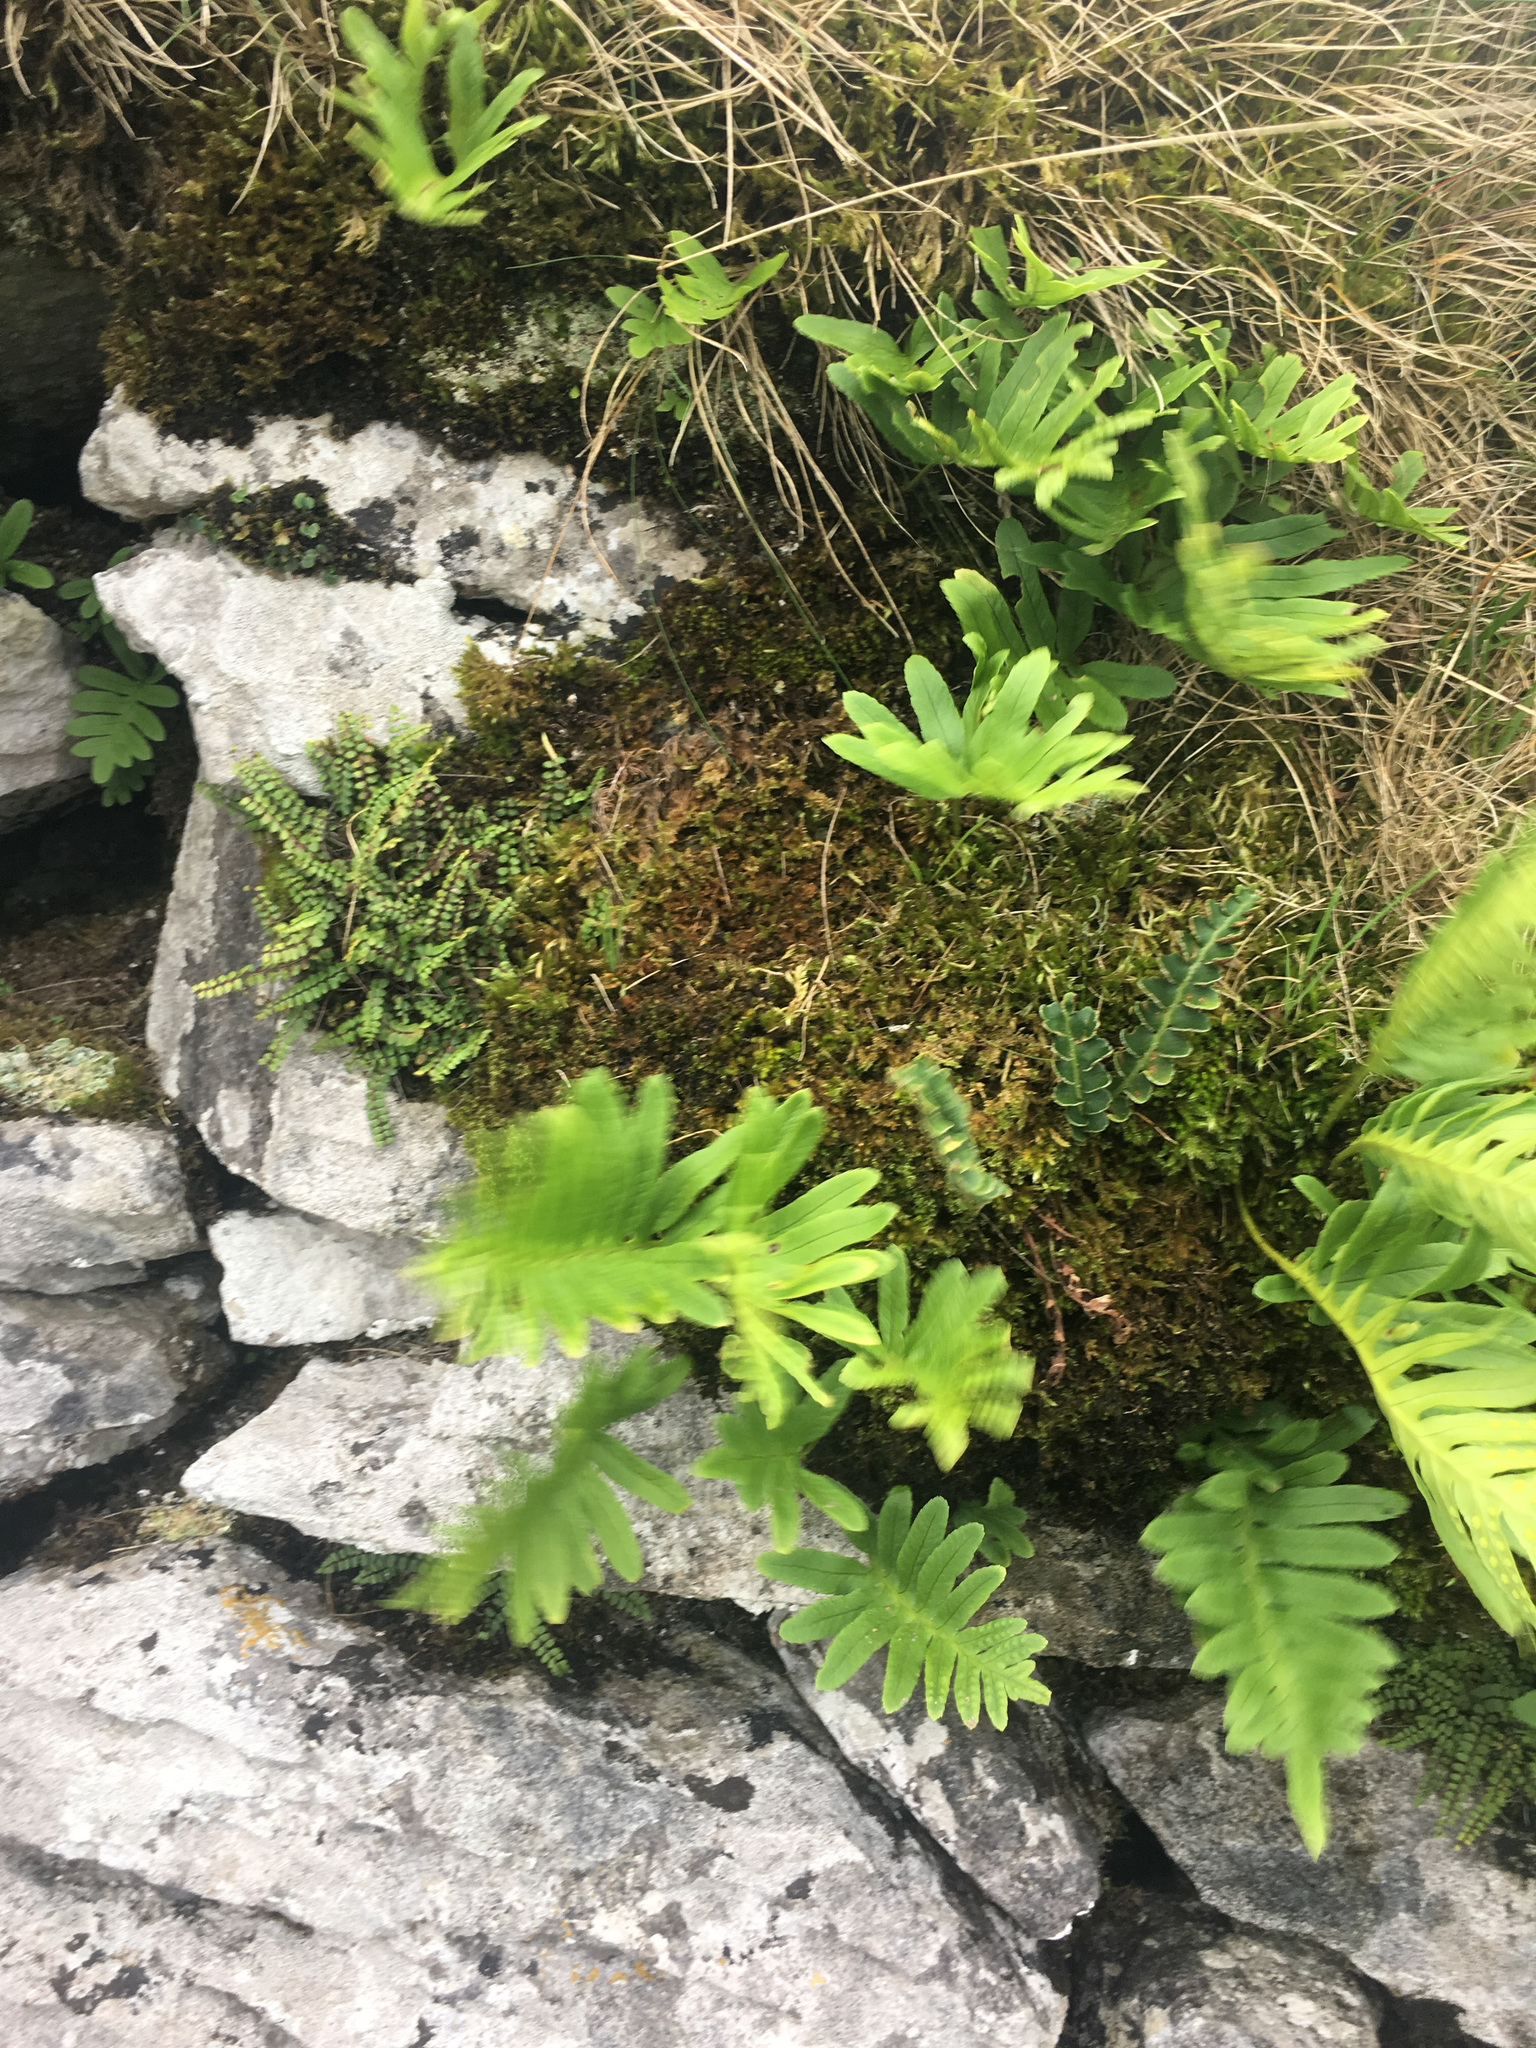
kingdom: Plantae
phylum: Tracheophyta
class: Polypodiopsida
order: Polypodiales
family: Aspleniaceae
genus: Asplenium
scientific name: Asplenium ceterach
